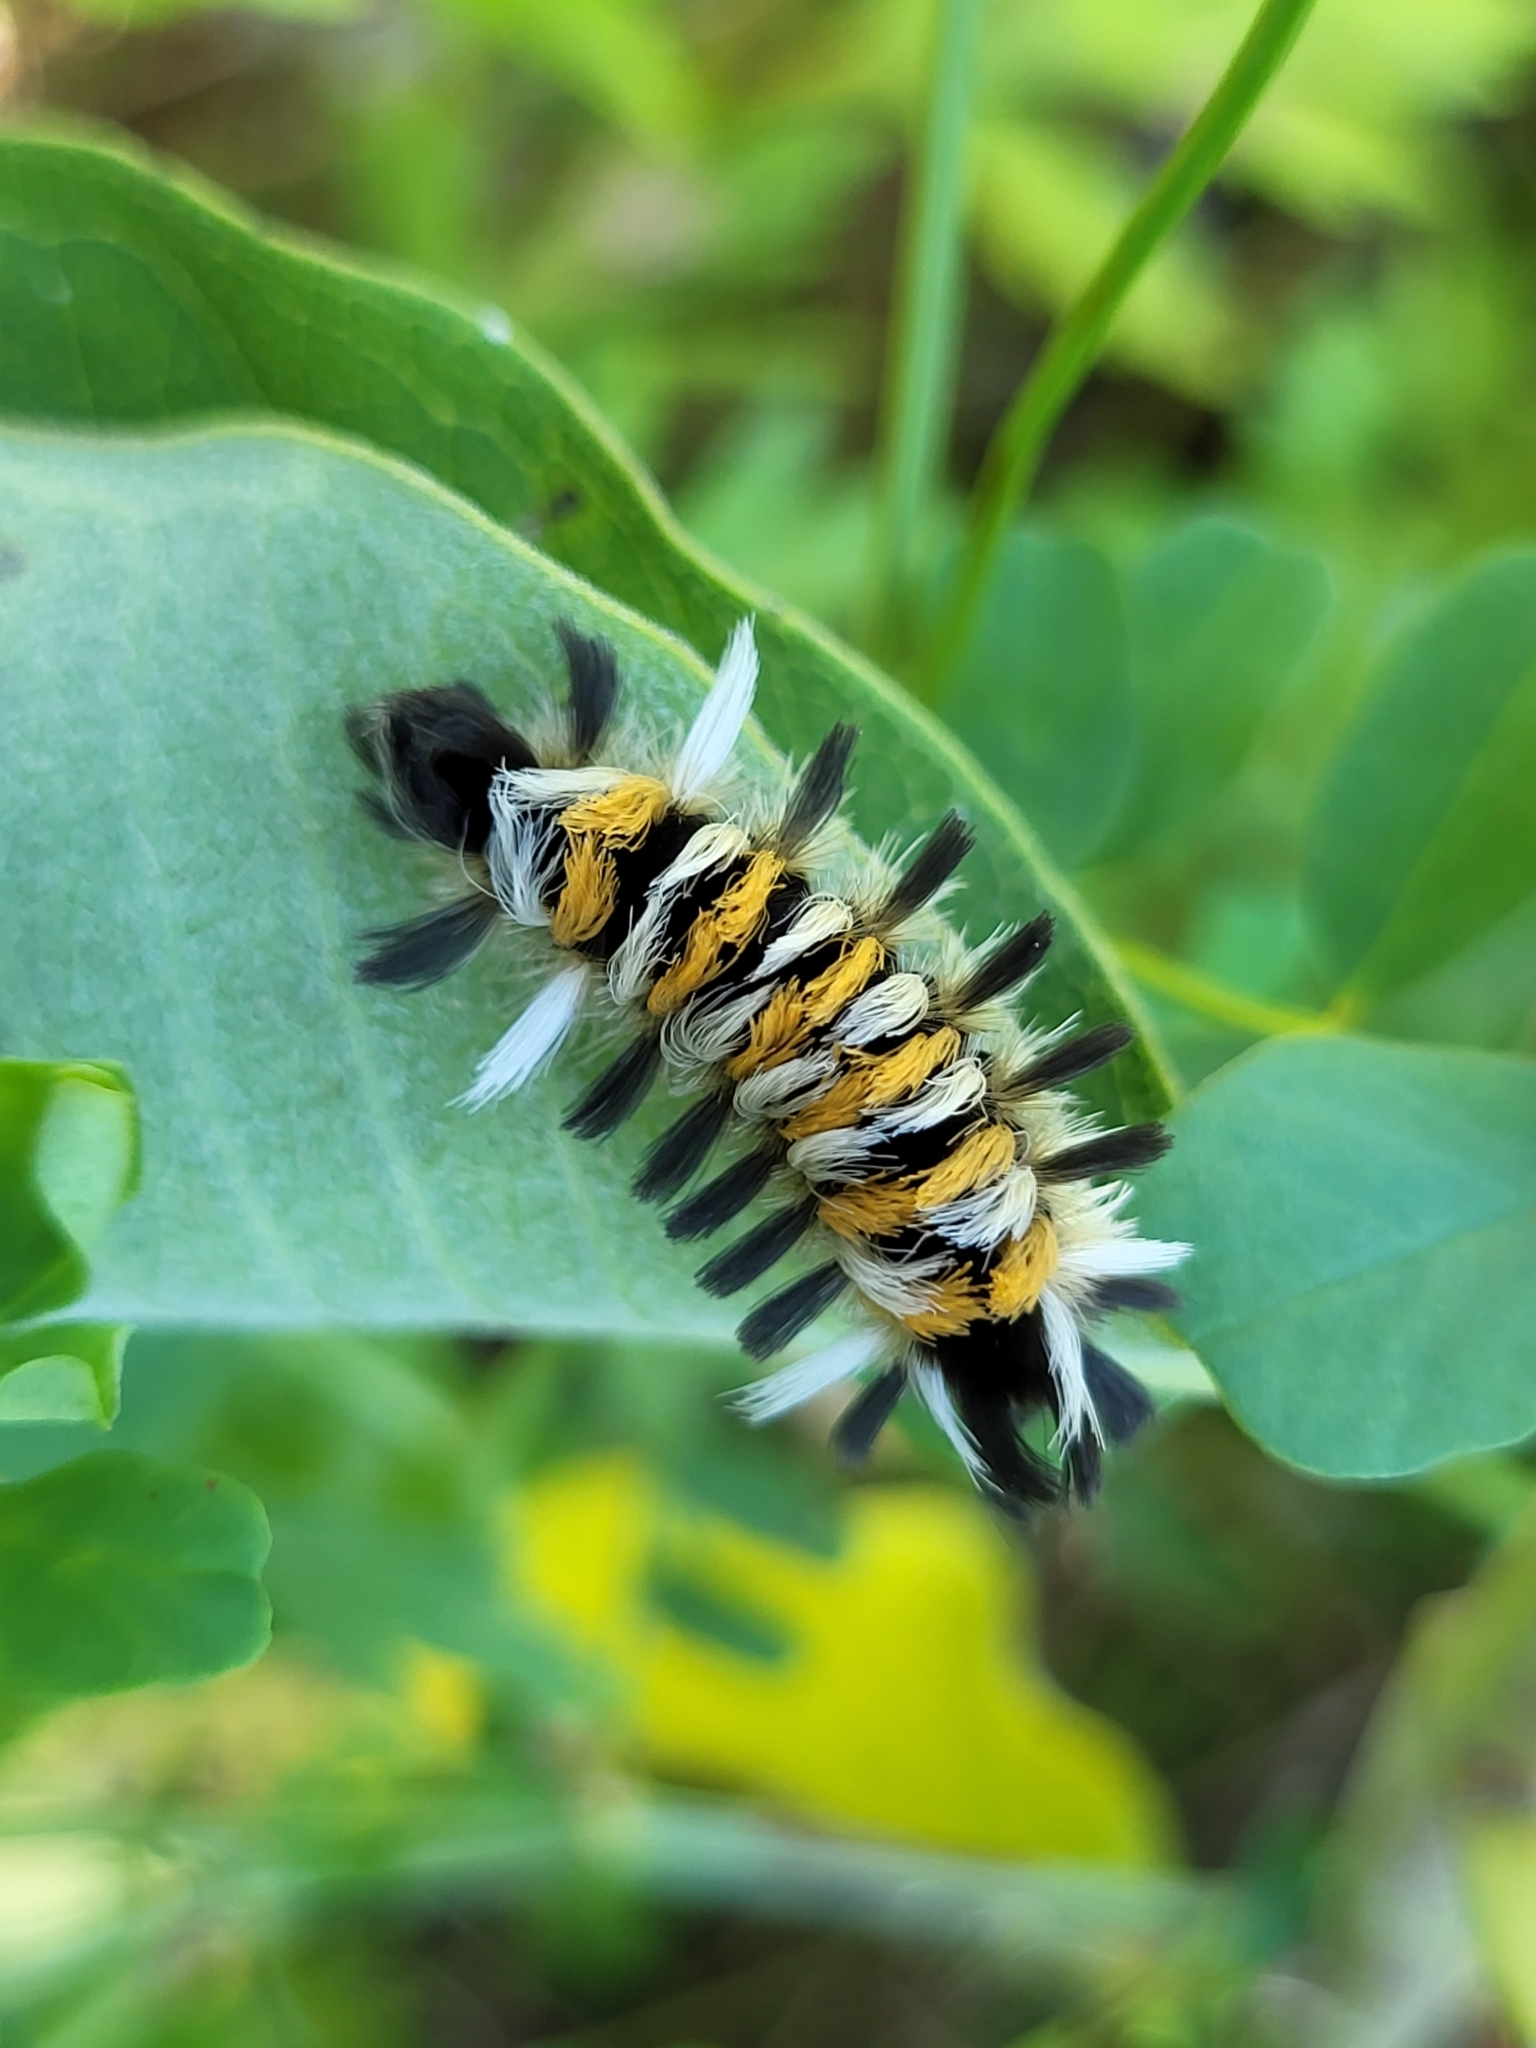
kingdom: Animalia
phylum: Arthropoda
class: Insecta
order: Lepidoptera
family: Erebidae
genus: Euchaetes
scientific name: Euchaetes egle
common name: Milkweed tussock moth
